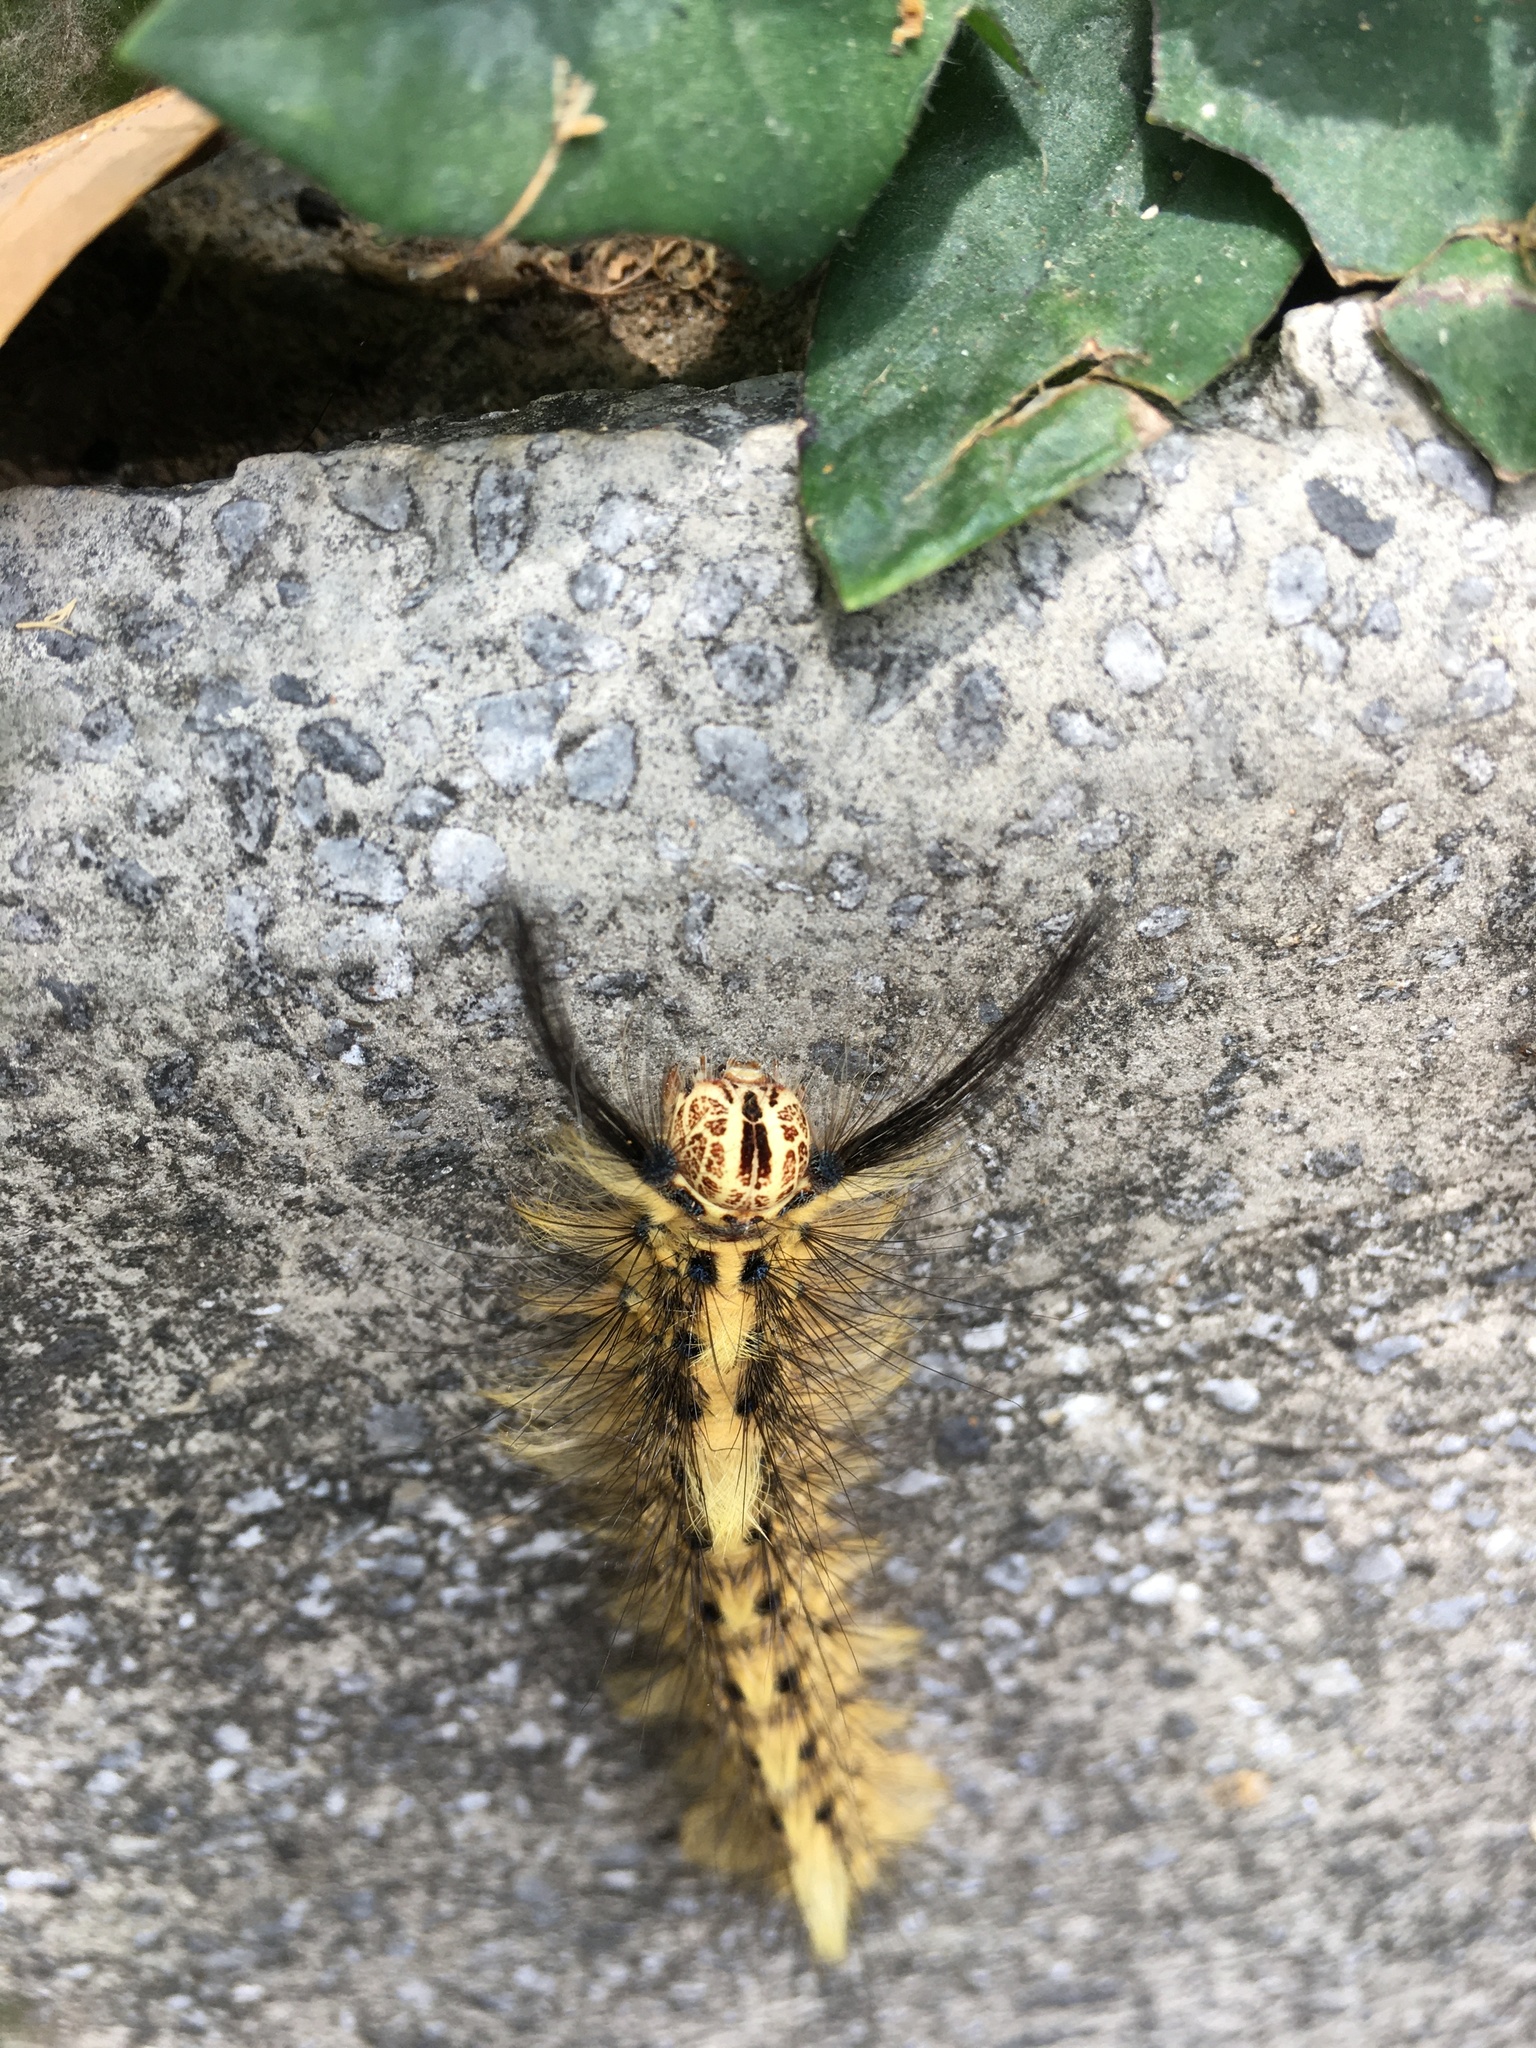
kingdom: Animalia
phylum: Arthropoda
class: Insecta
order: Lepidoptera
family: Lasiocampidae
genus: Trabala
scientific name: Trabala vishnou
